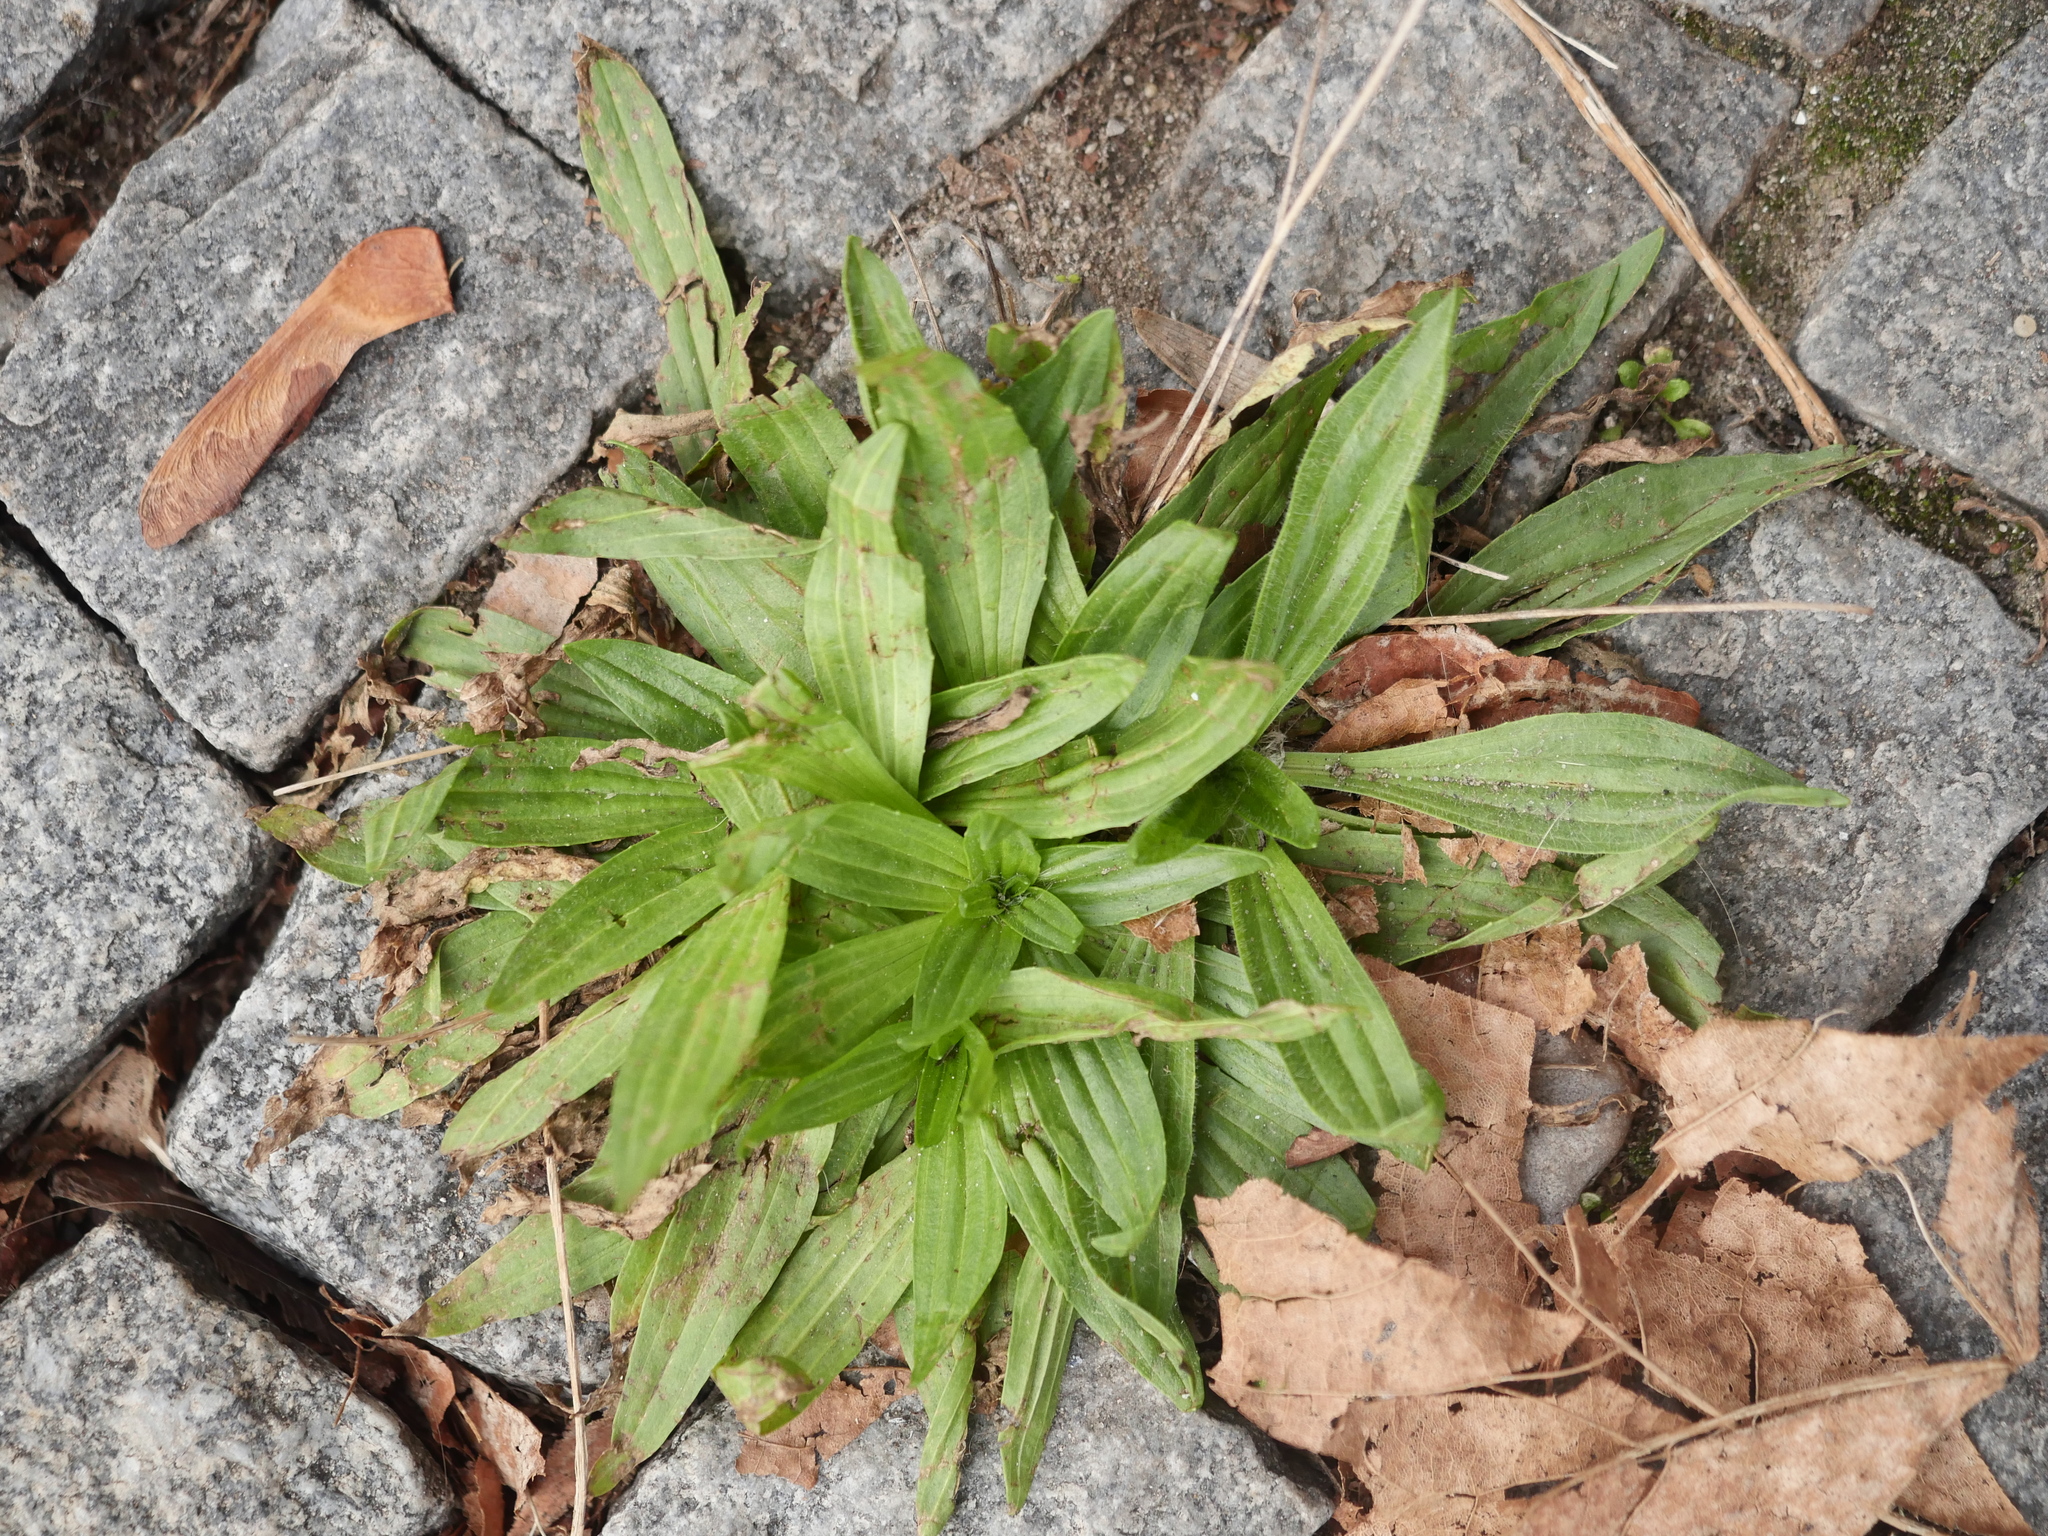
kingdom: Plantae
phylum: Tracheophyta
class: Magnoliopsida
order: Lamiales
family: Plantaginaceae
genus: Plantago
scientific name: Plantago lanceolata
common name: Ribwort plantain
